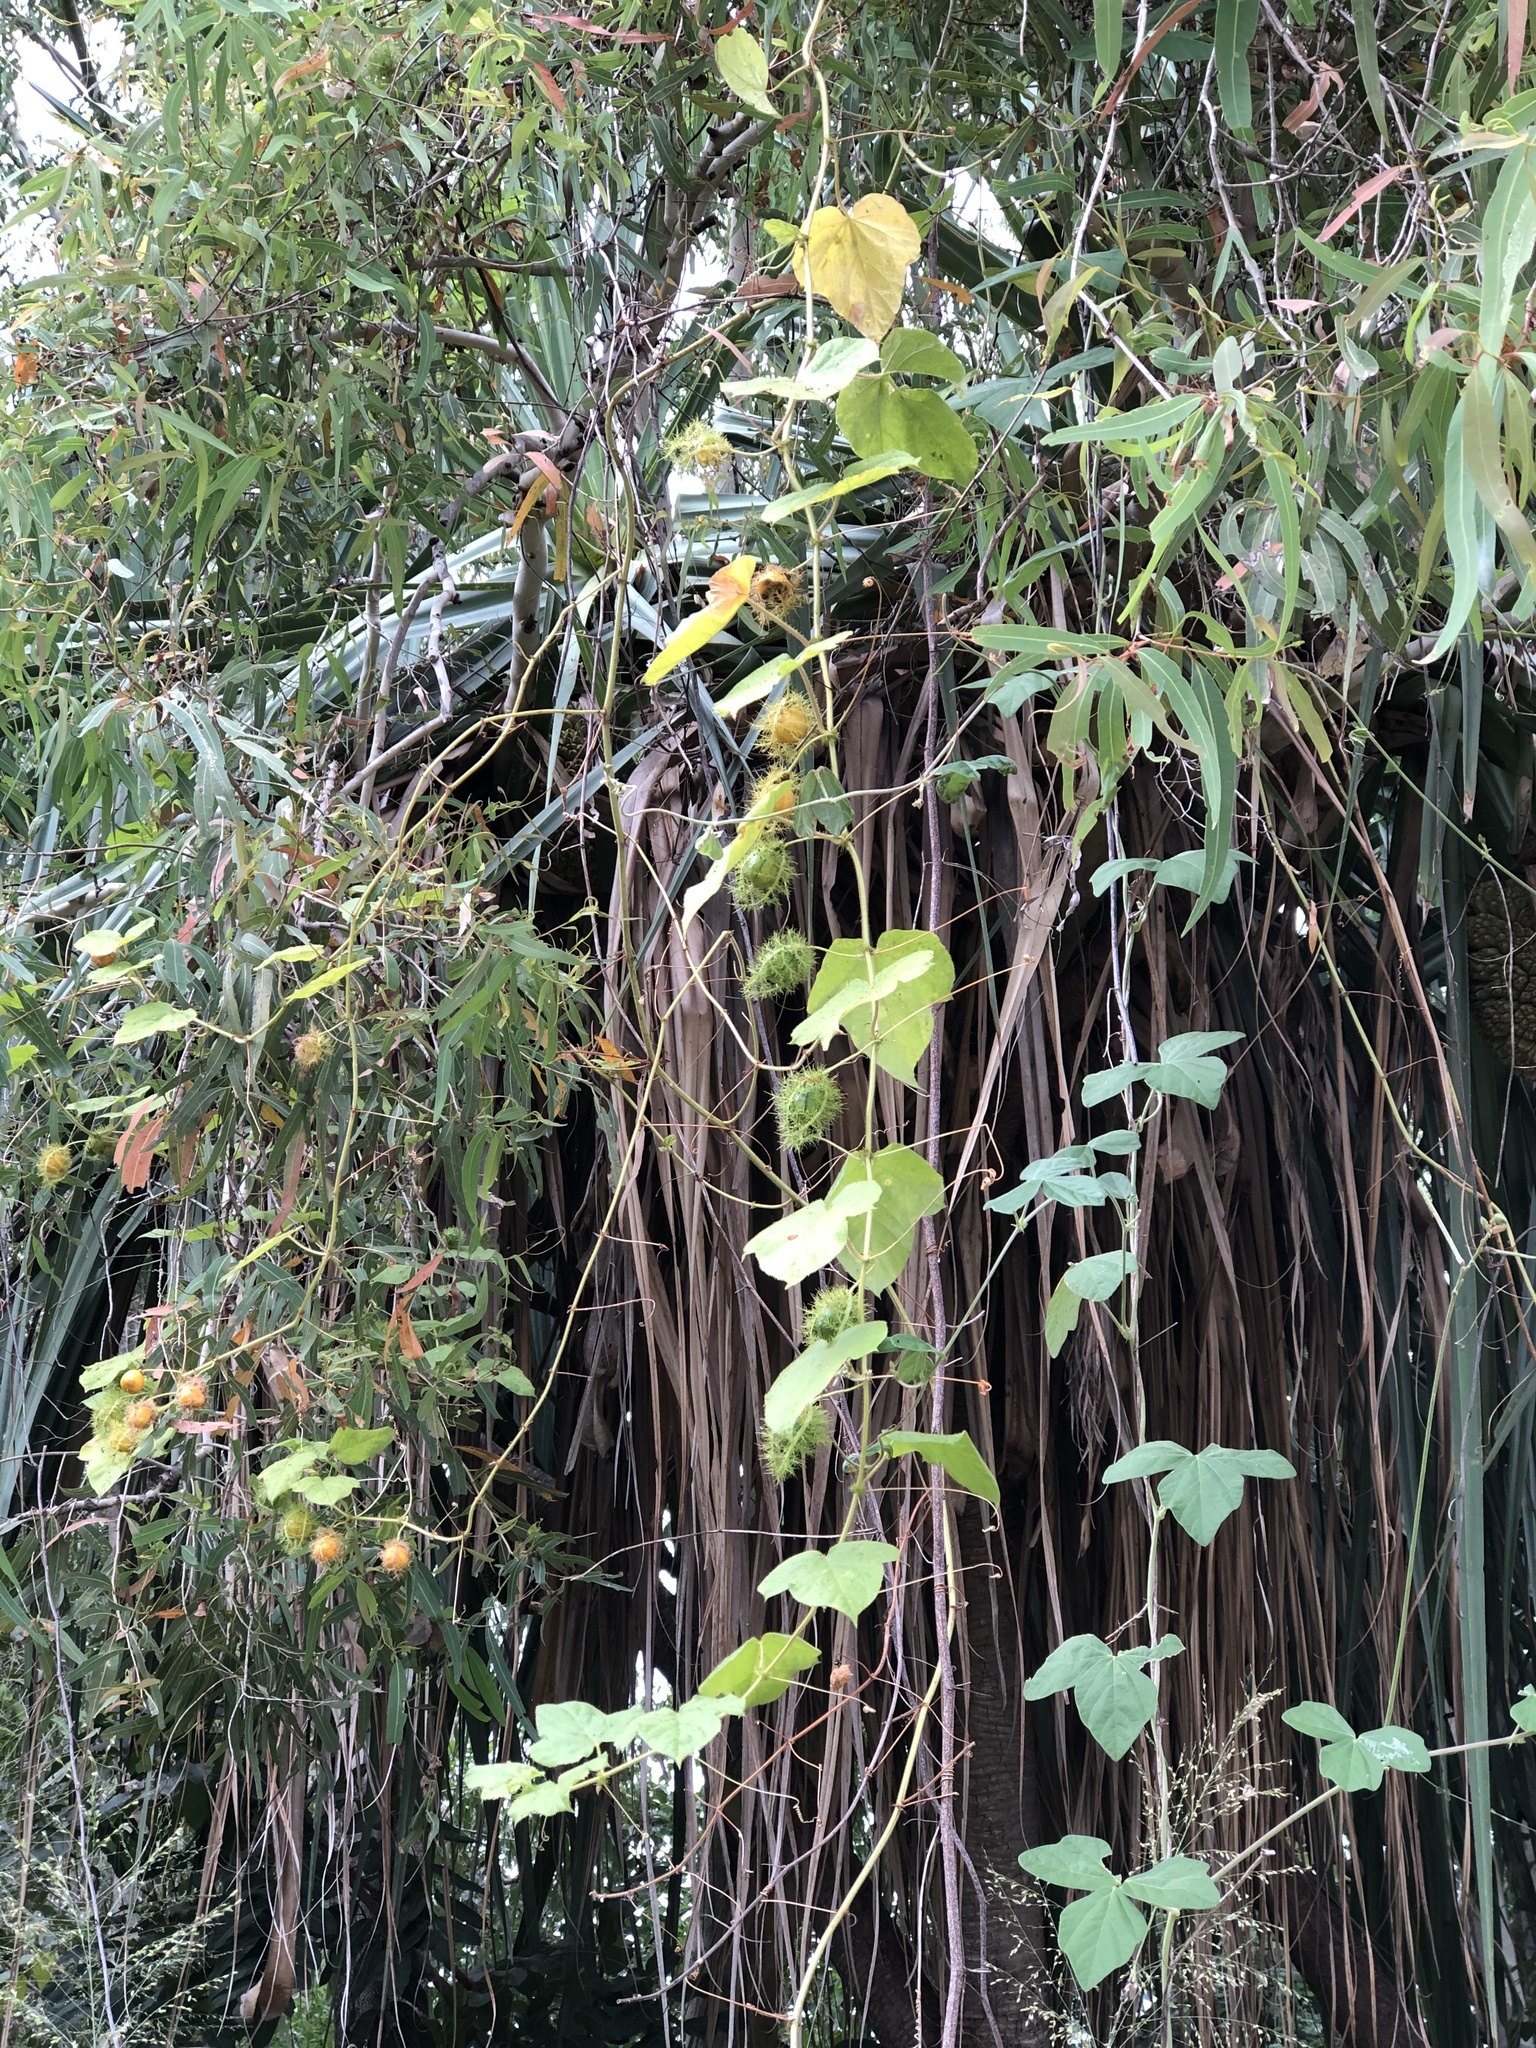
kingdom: Plantae
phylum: Tracheophyta
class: Magnoliopsida
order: Malpighiales
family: Passifloraceae
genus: Passiflora
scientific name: Passiflora foetida
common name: Fetid passionflower
